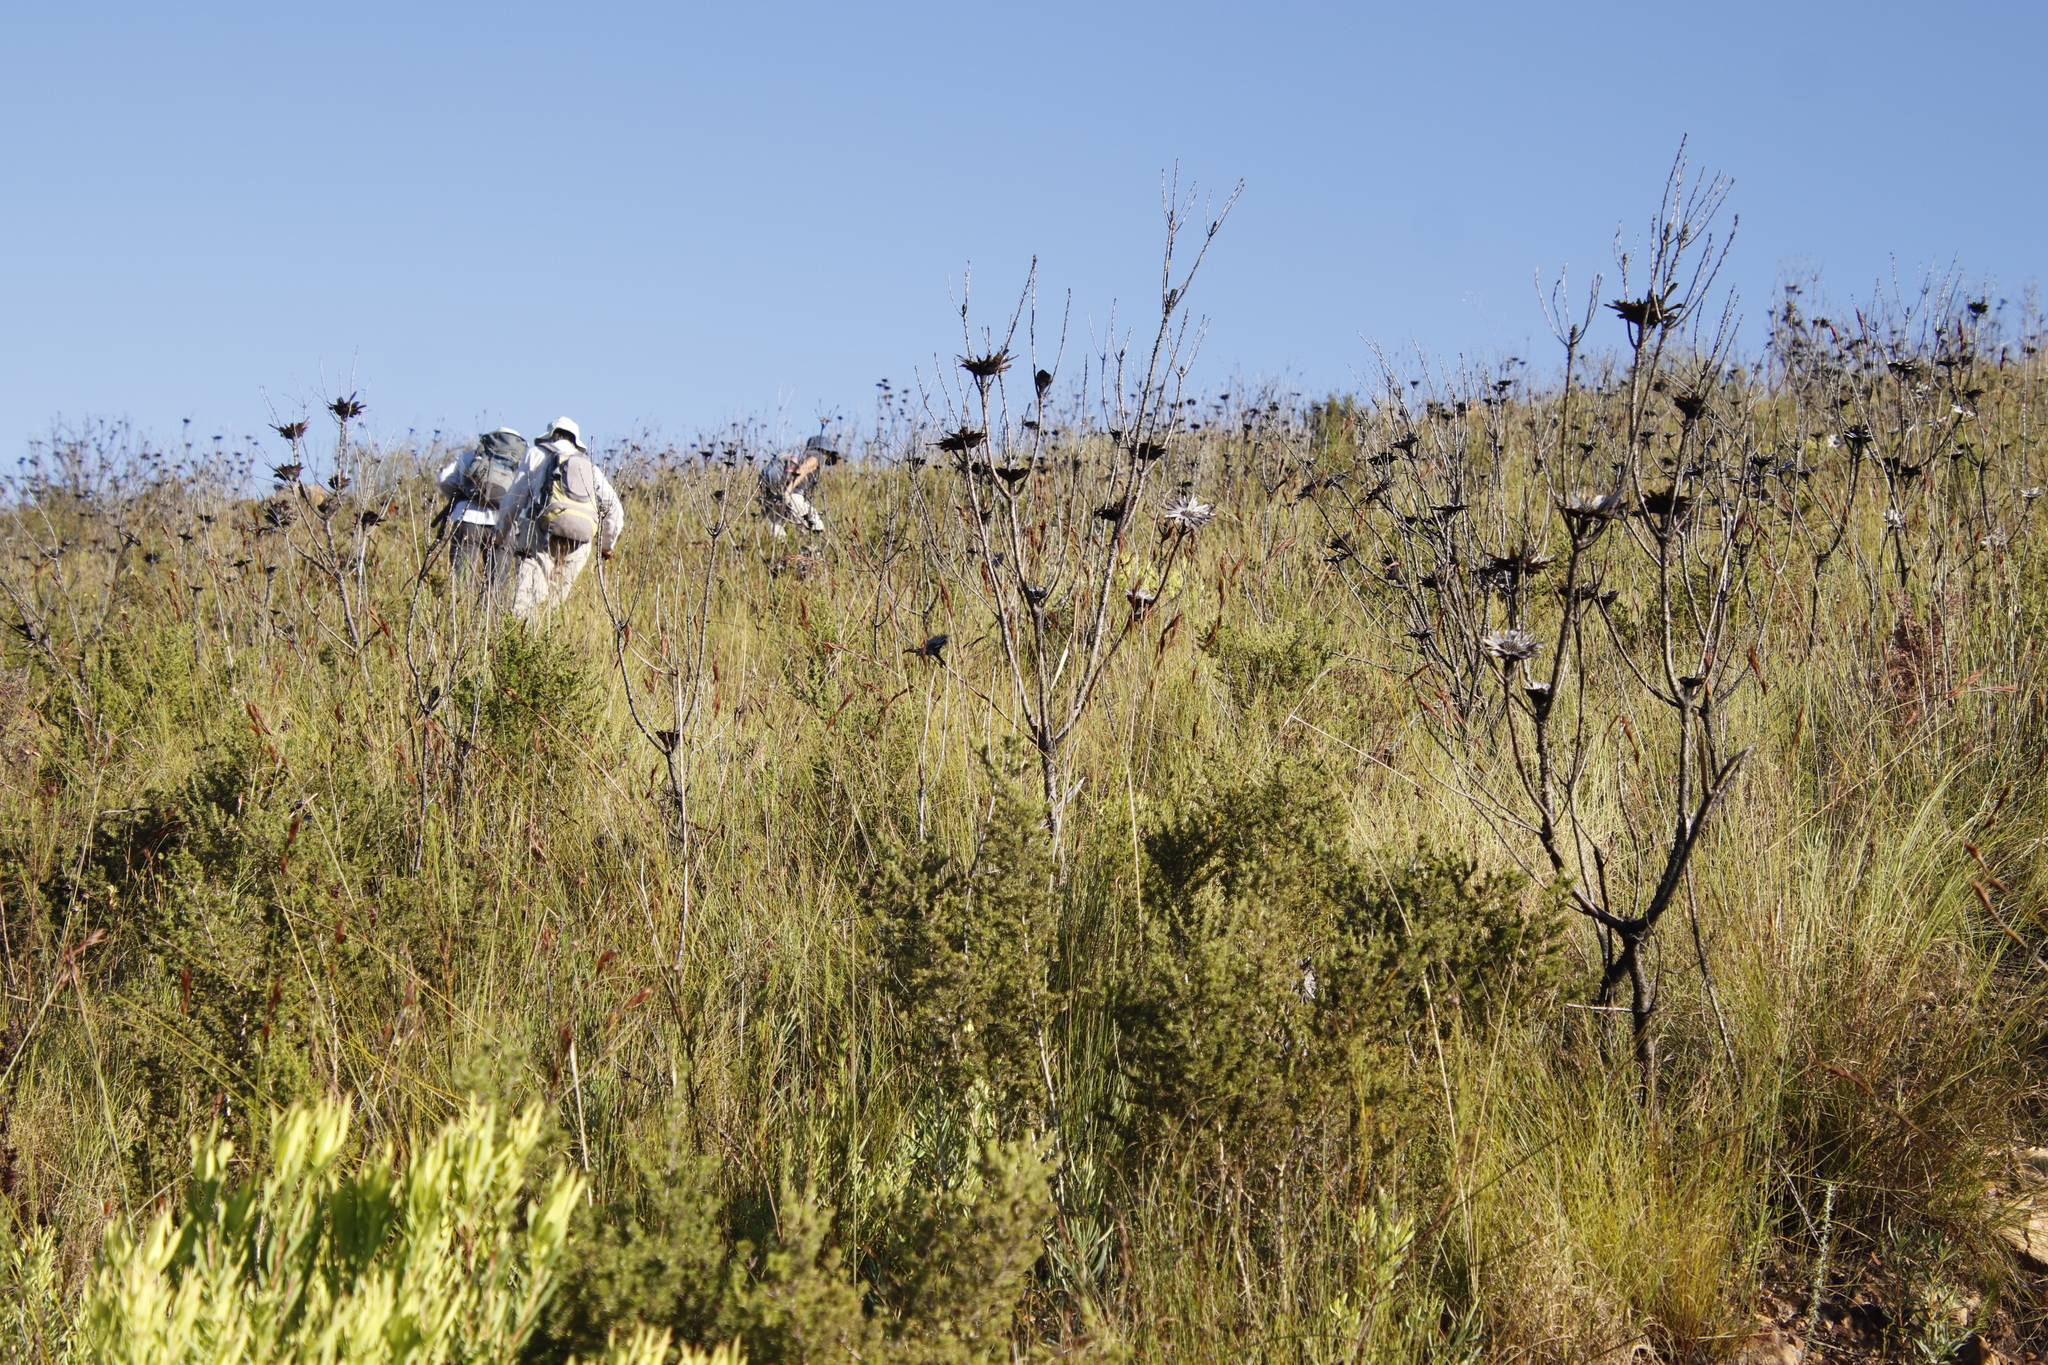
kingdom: Plantae
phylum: Tracheophyta
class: Magnoliopsida
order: Proteales
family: Proteaceae
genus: Protea
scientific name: Protea repens
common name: Sugarbush
